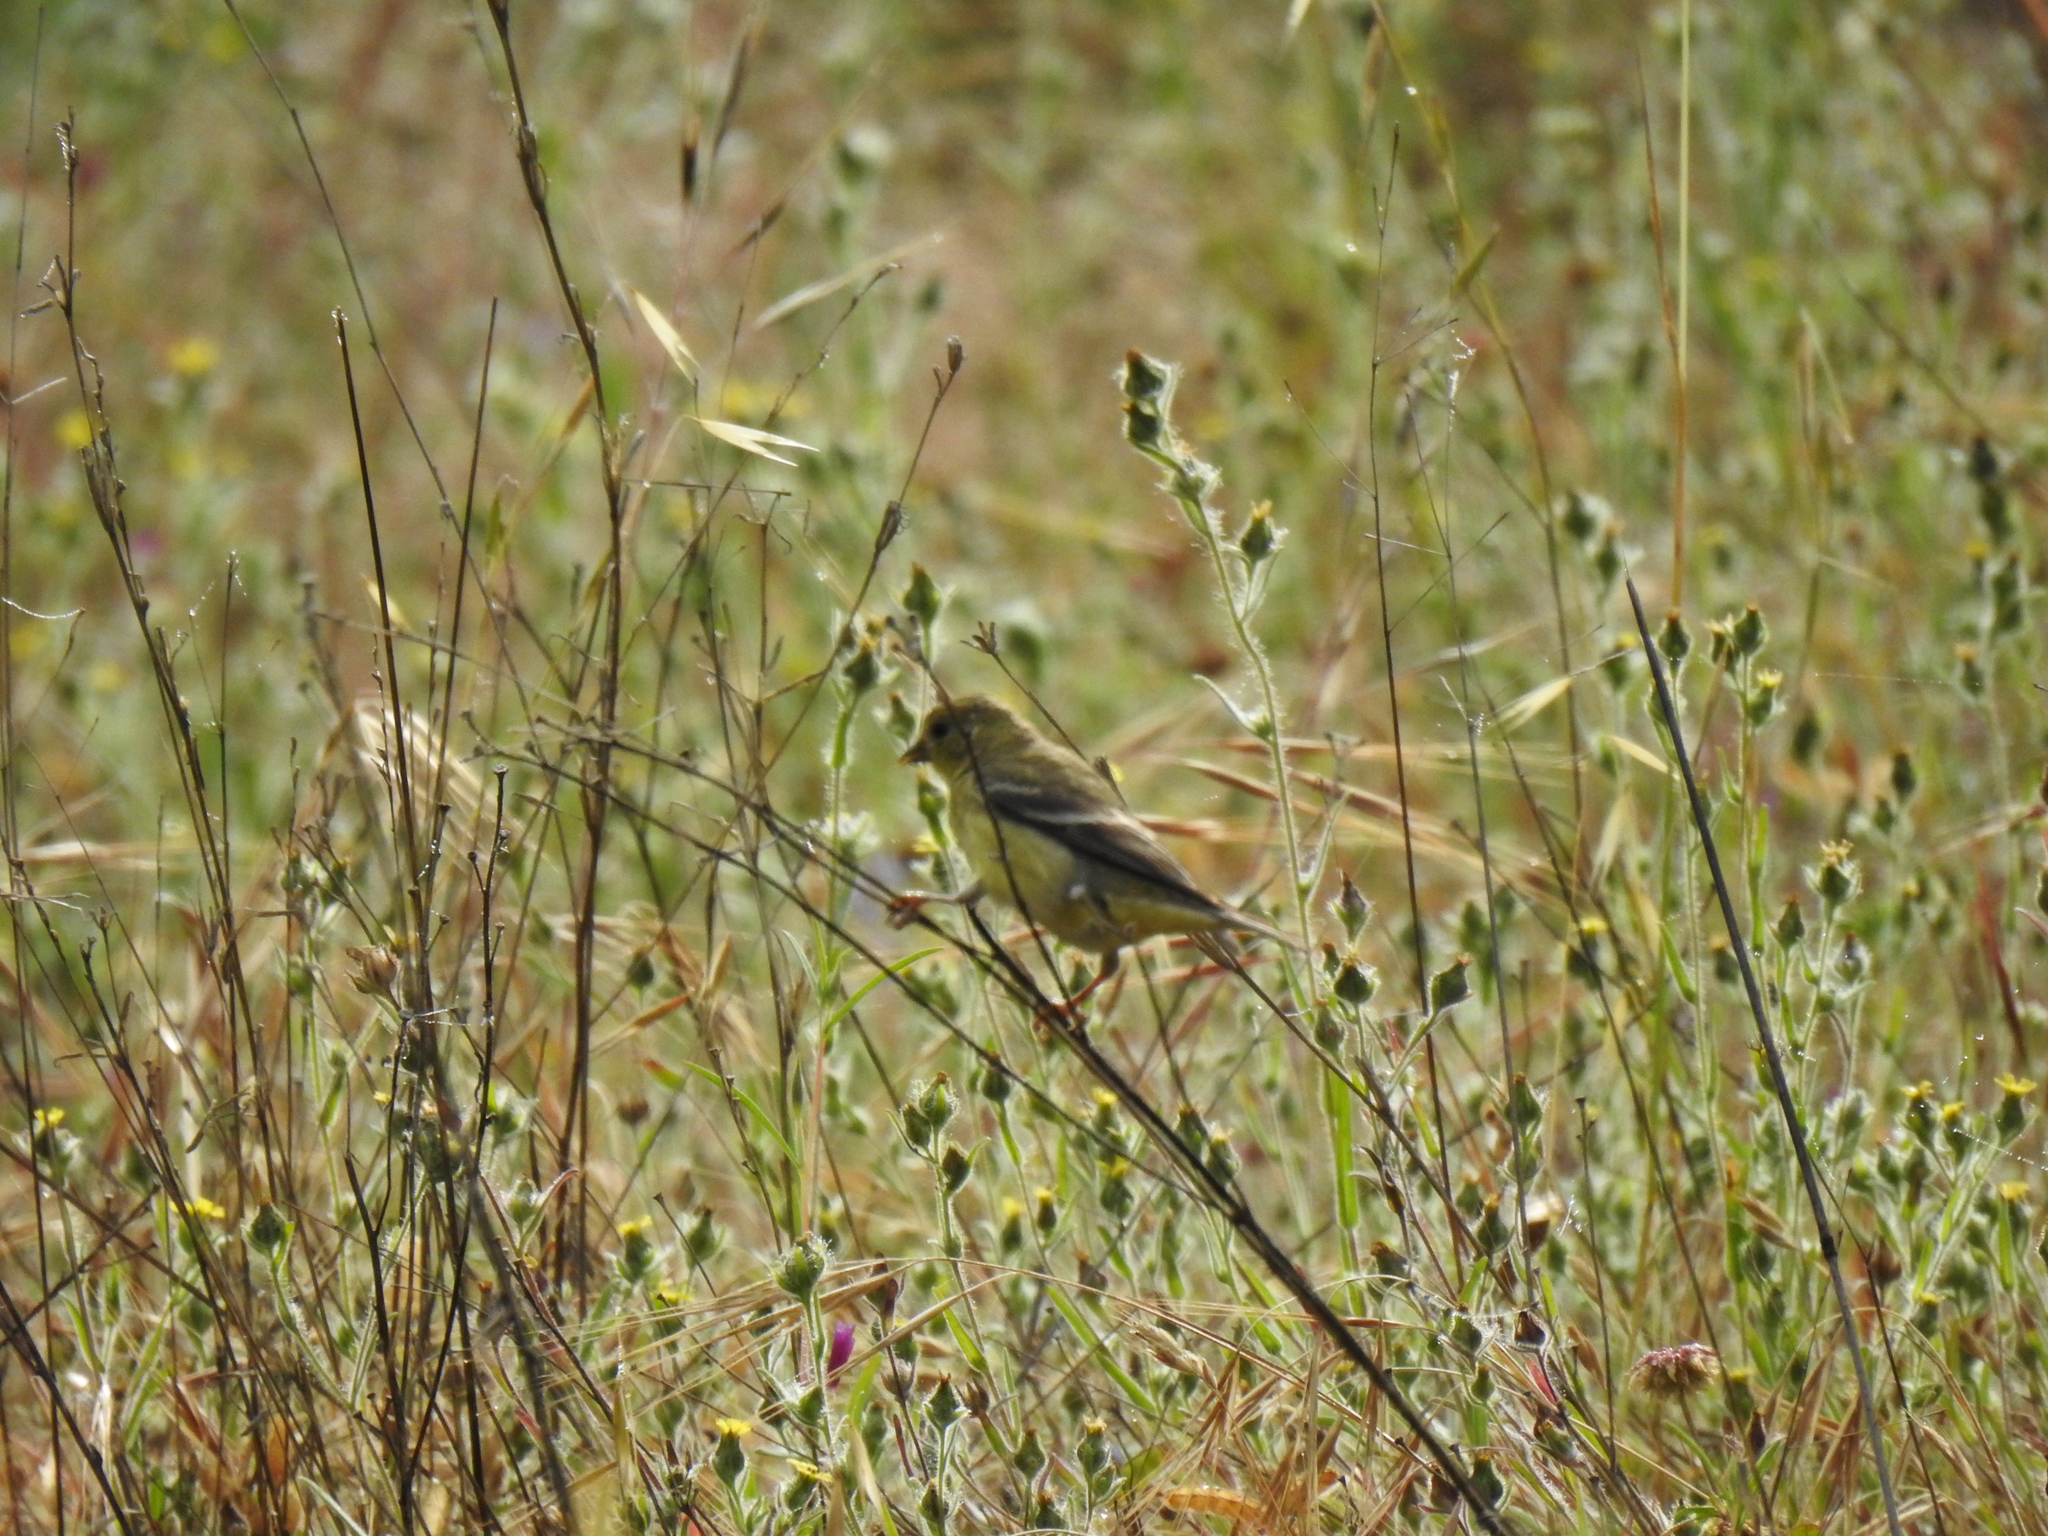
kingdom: Animalia
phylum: Chordata
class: Aves
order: Passeriformes
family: Fringillidae
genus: Spinus
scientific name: Spinus psaltria
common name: Lesser goldfinch
